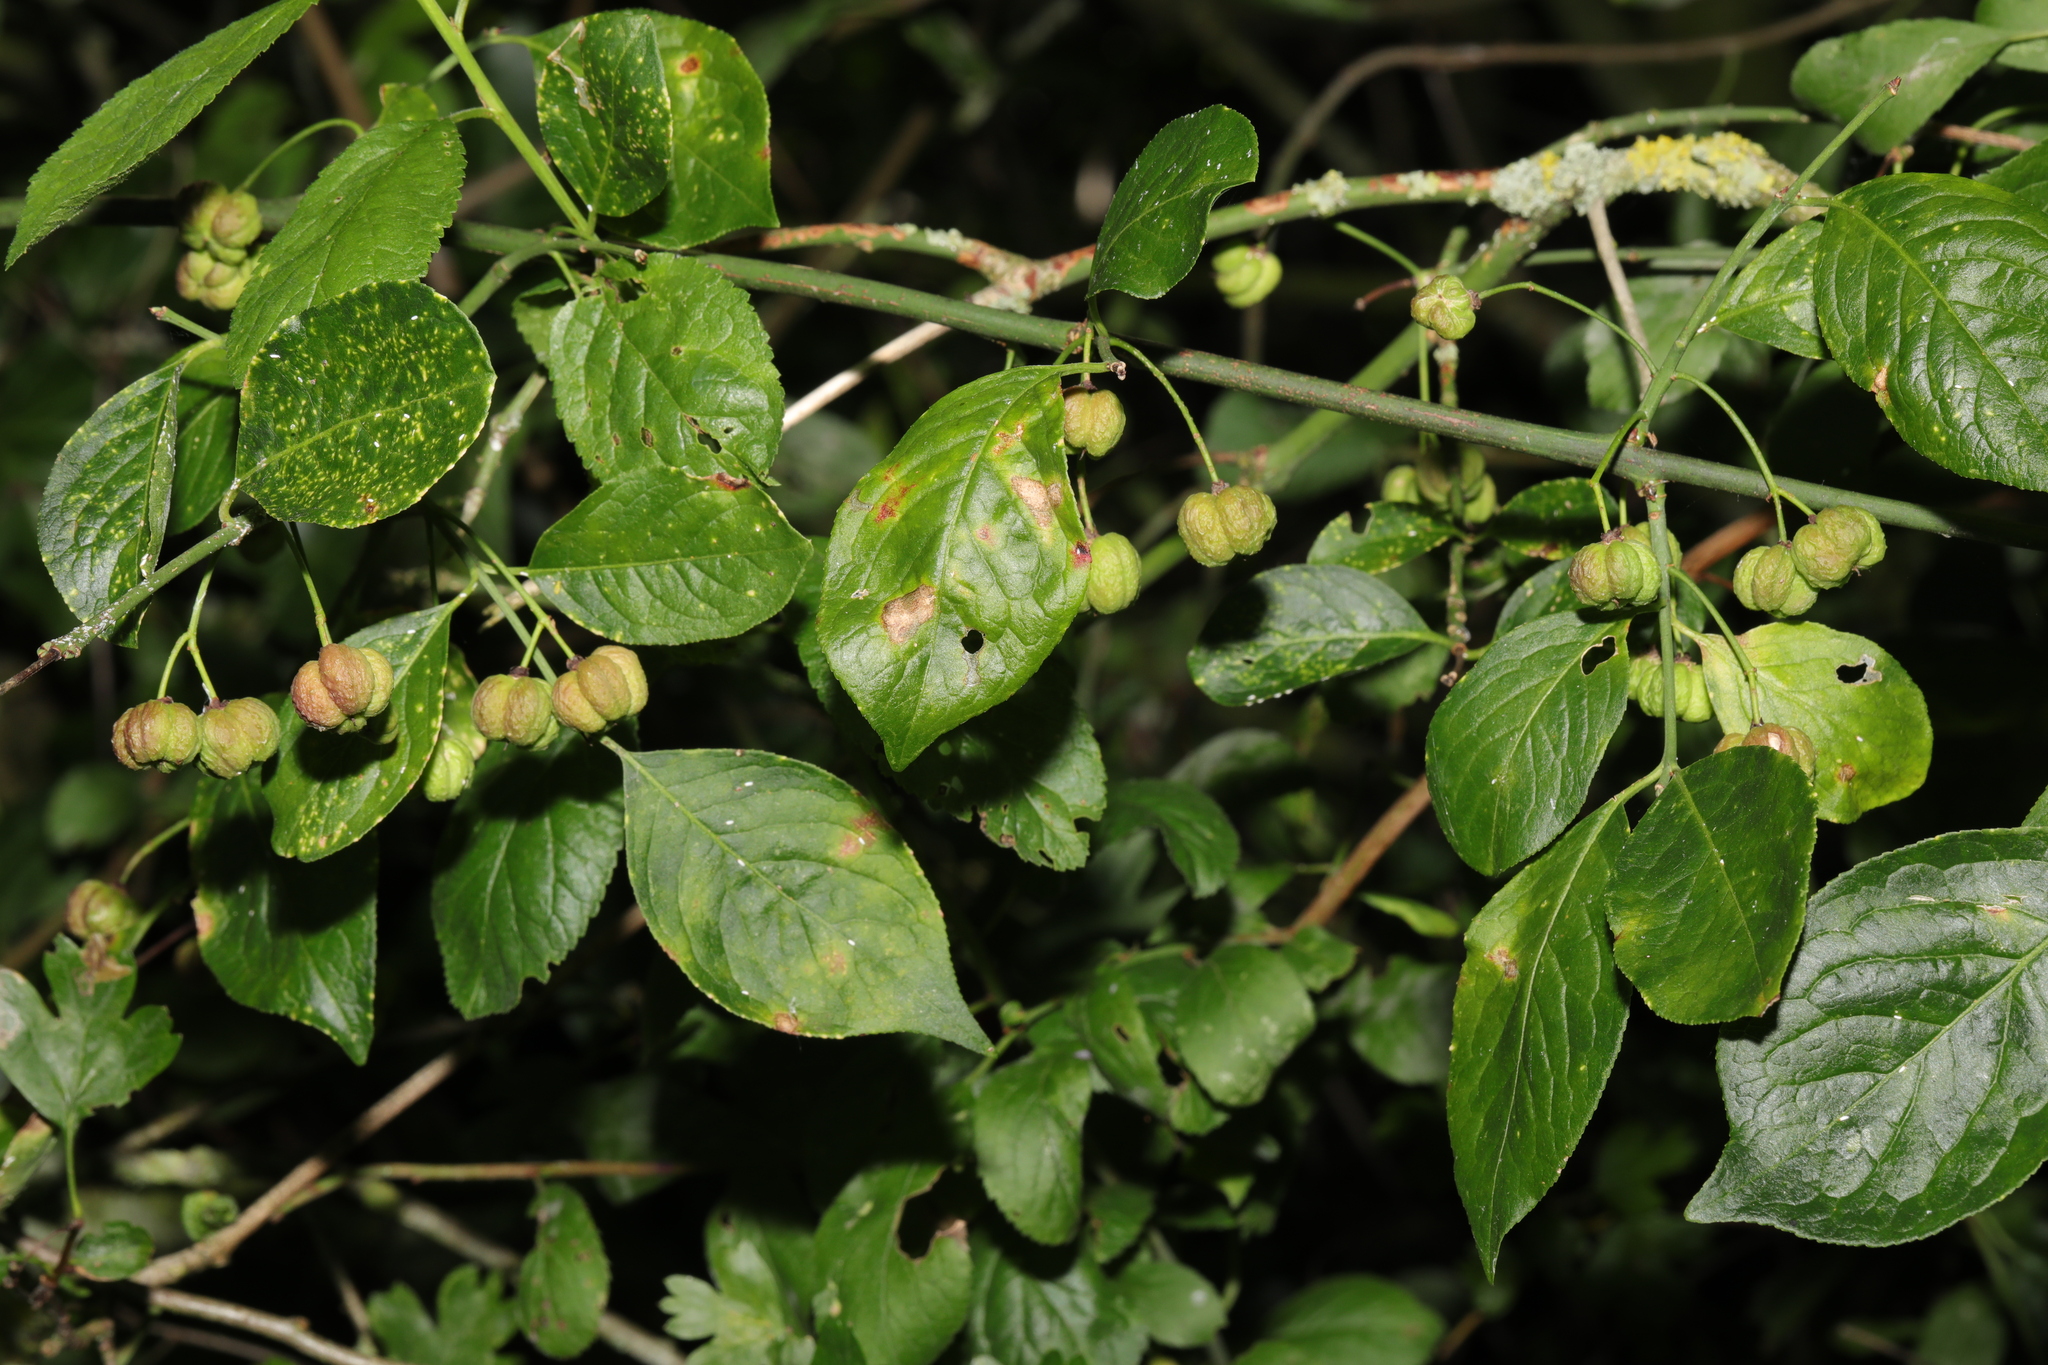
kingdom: Plantae
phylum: Tracheophyta
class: Magnoliopsida
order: Celastrales
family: Celastraceae
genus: Euonymus
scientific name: Euonymus europaeus
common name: Spindle
